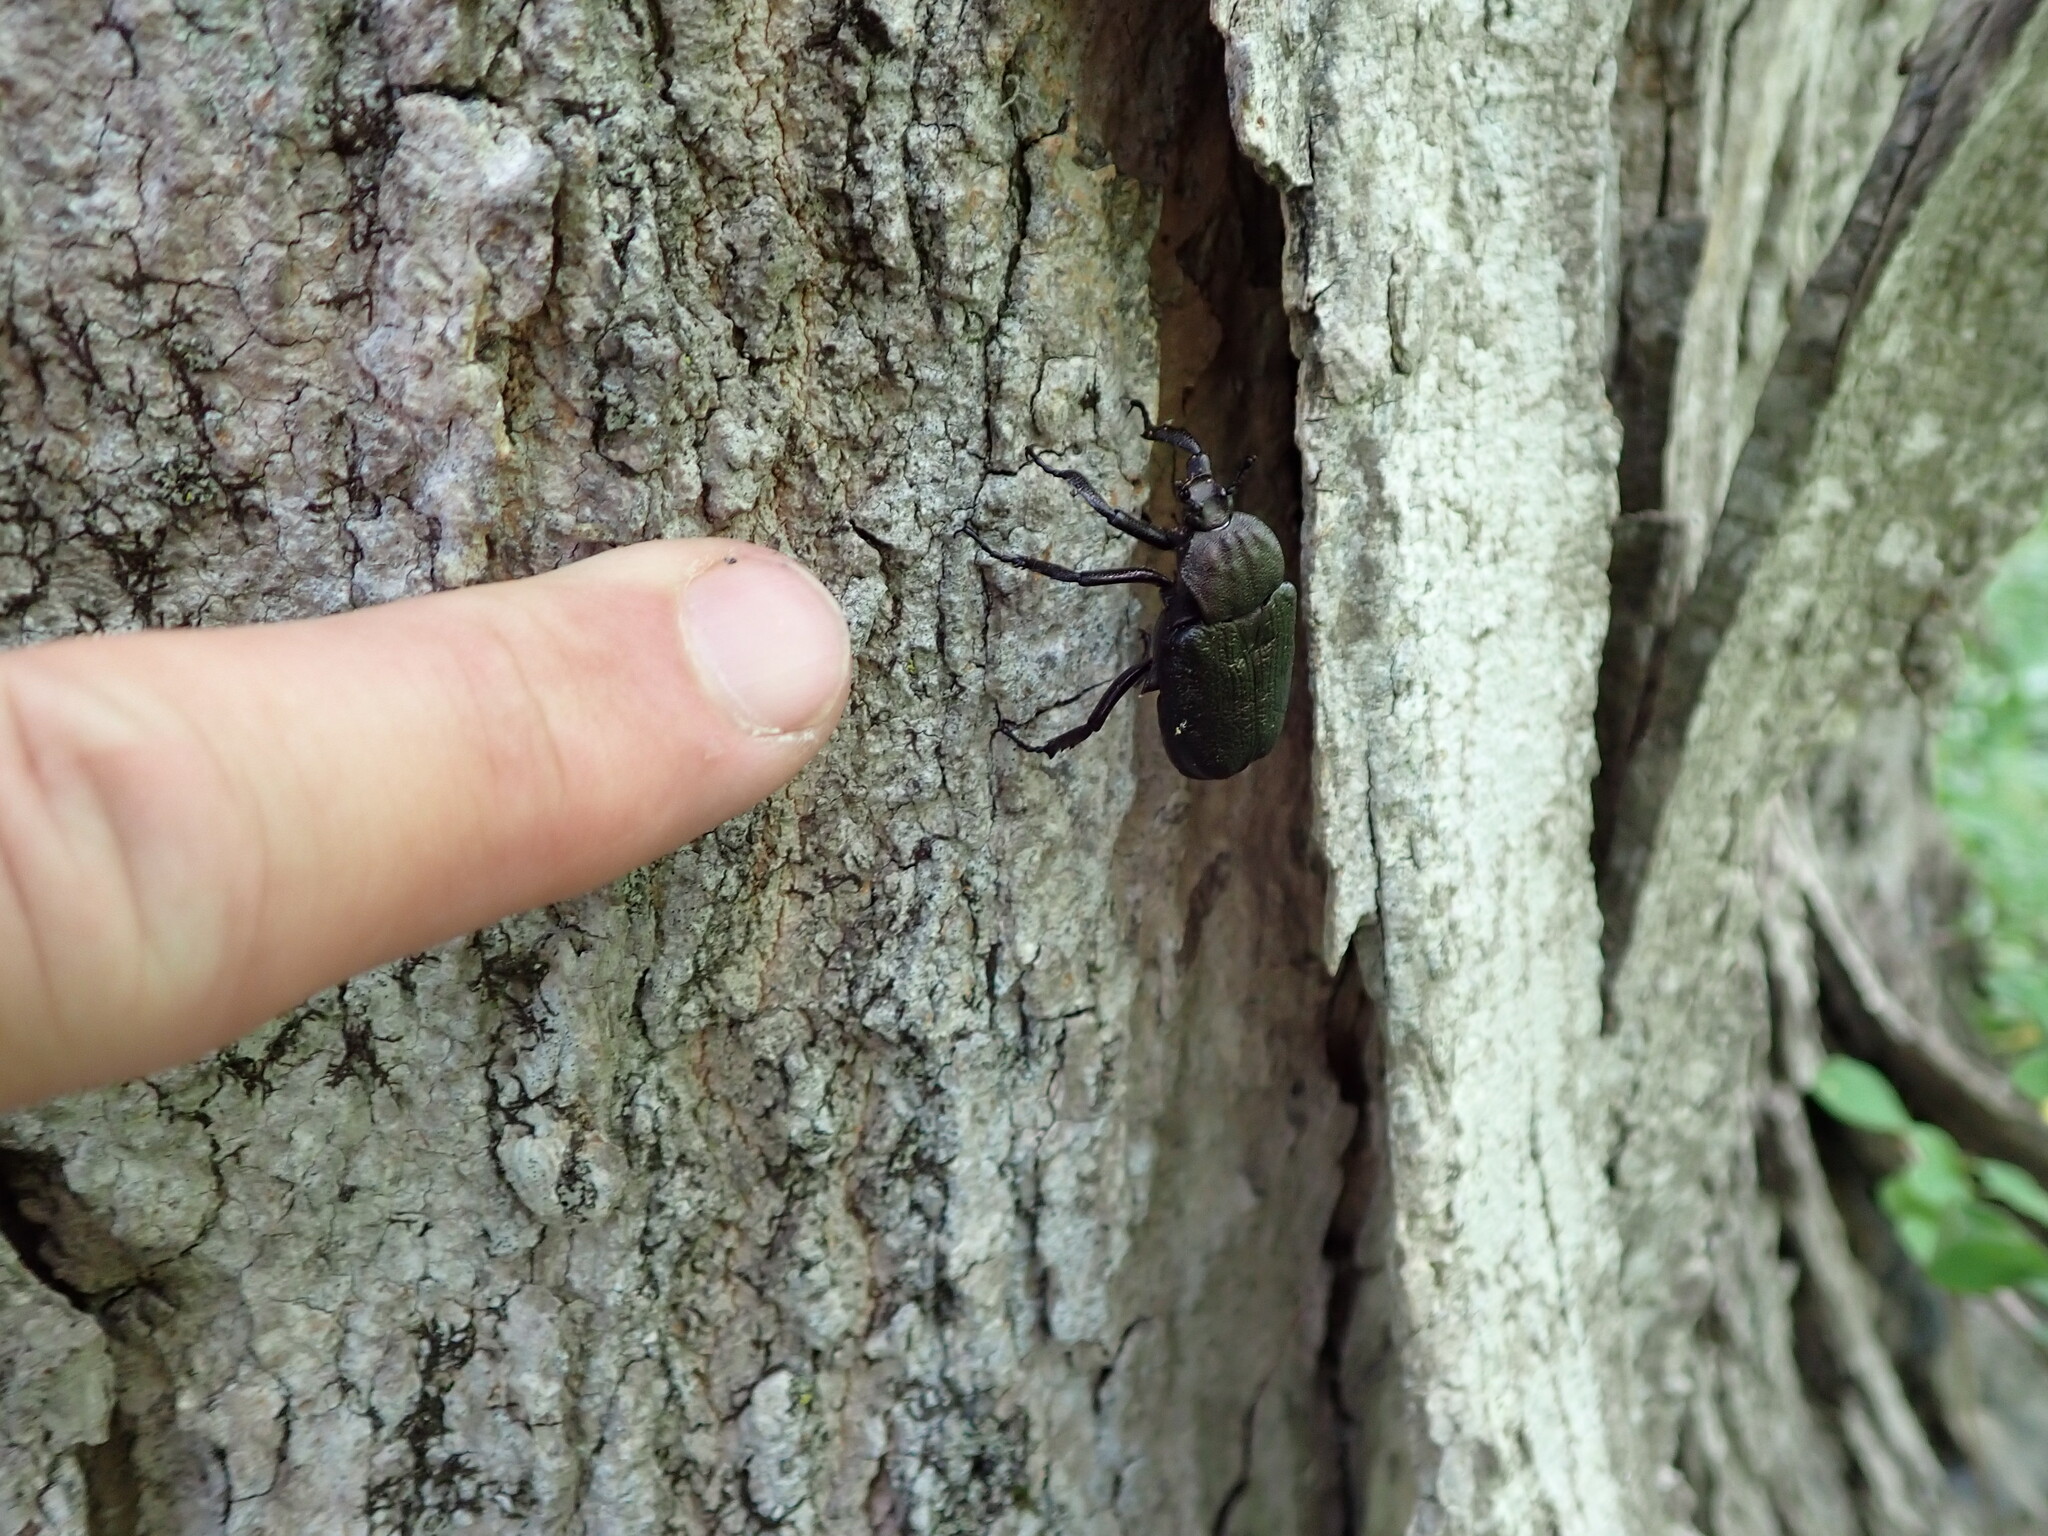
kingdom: Animalia
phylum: Arthropoda
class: Insecta
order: Coleoptera
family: Scarabaeidae
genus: Osmoderma
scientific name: Osmoderma scabra
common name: Rough hermit beetle
